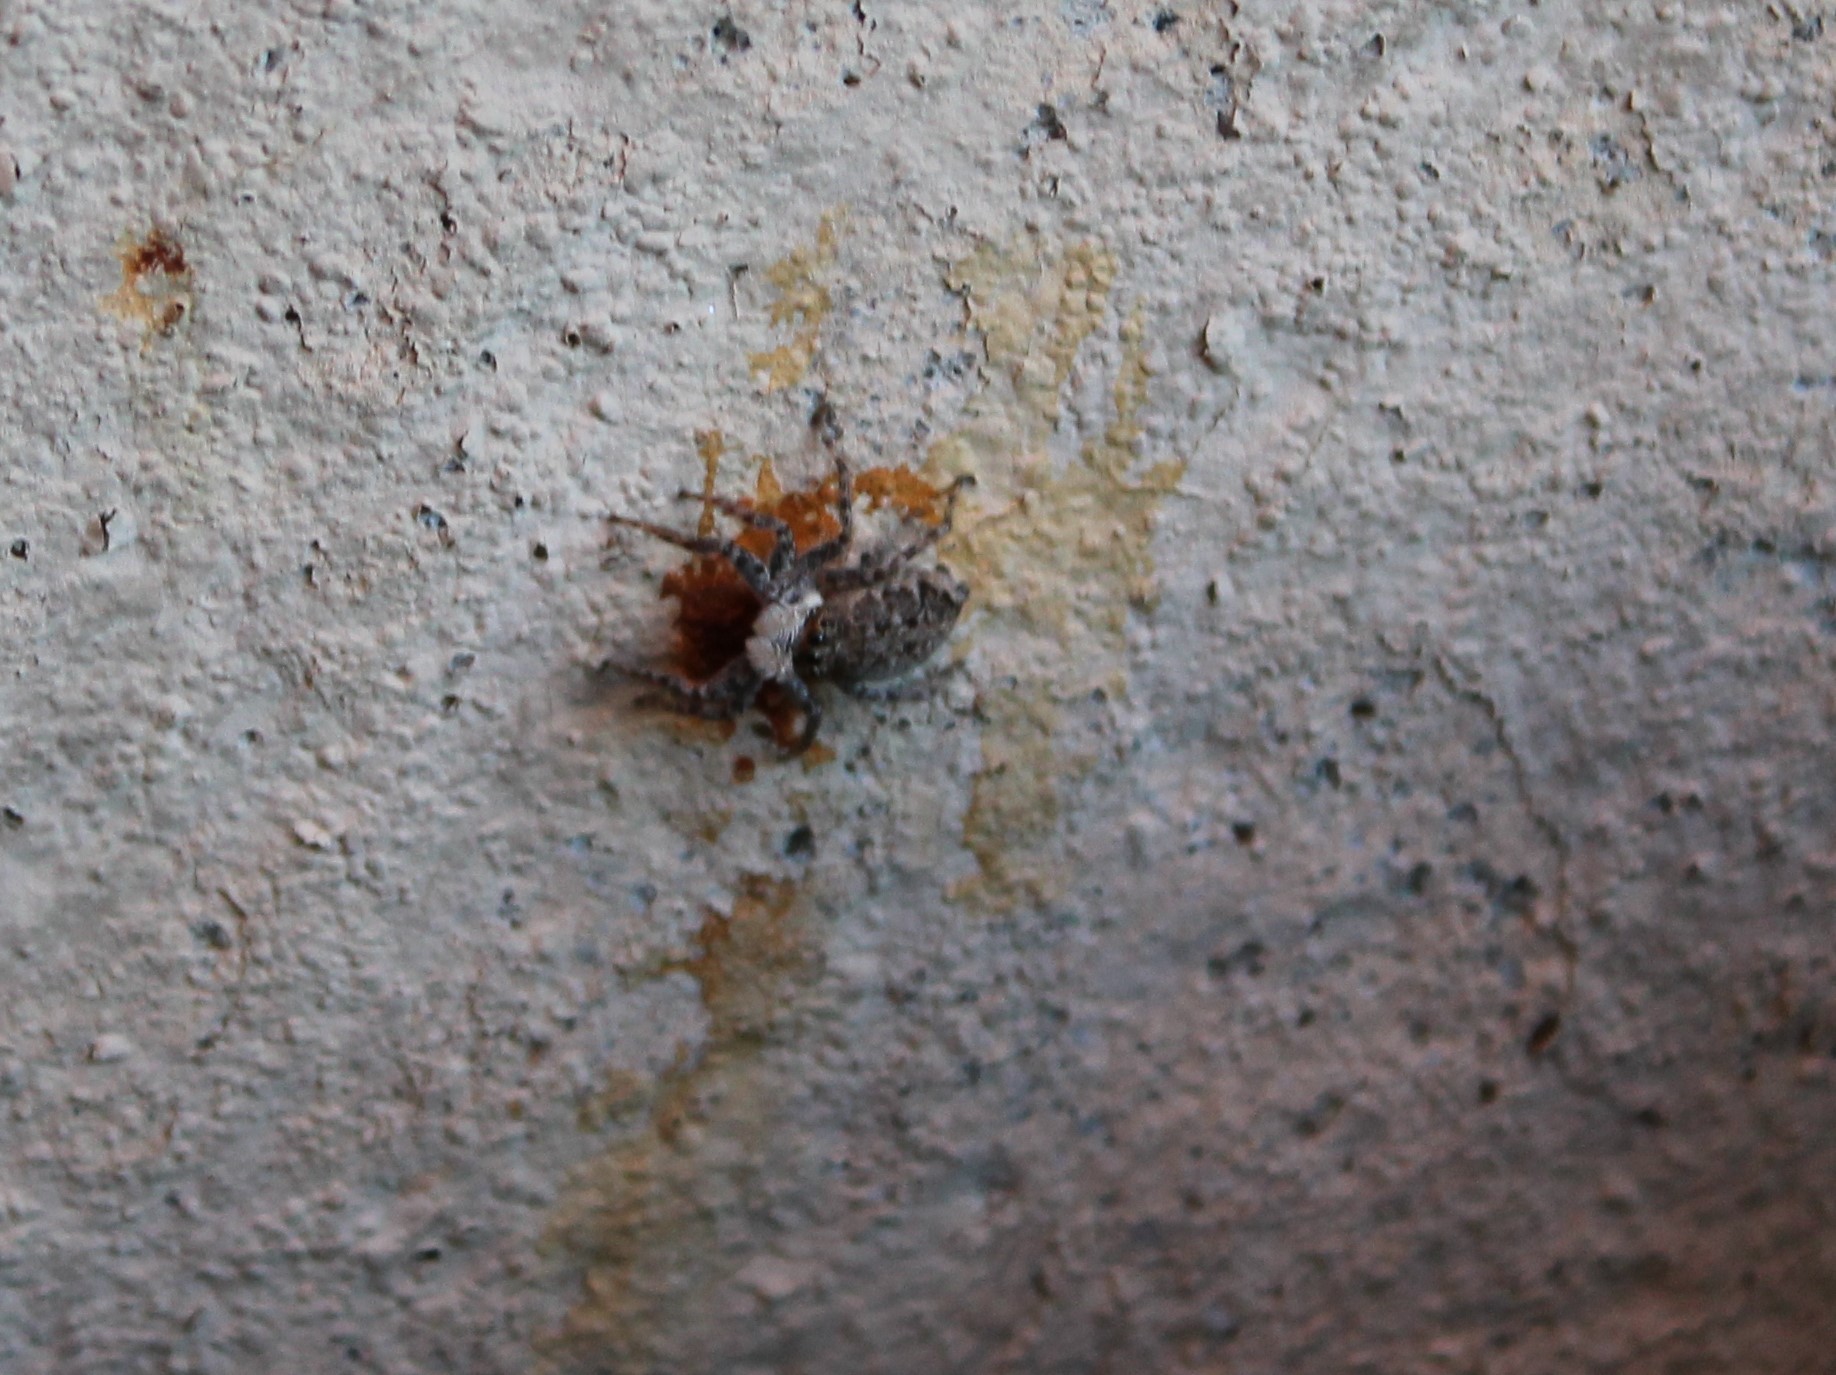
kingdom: Animalia
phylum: Arthropoda
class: Arachnida
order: Araneae
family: Salticidae
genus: Menemerus
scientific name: Menemerus semilimbatus
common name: Jumping spider
